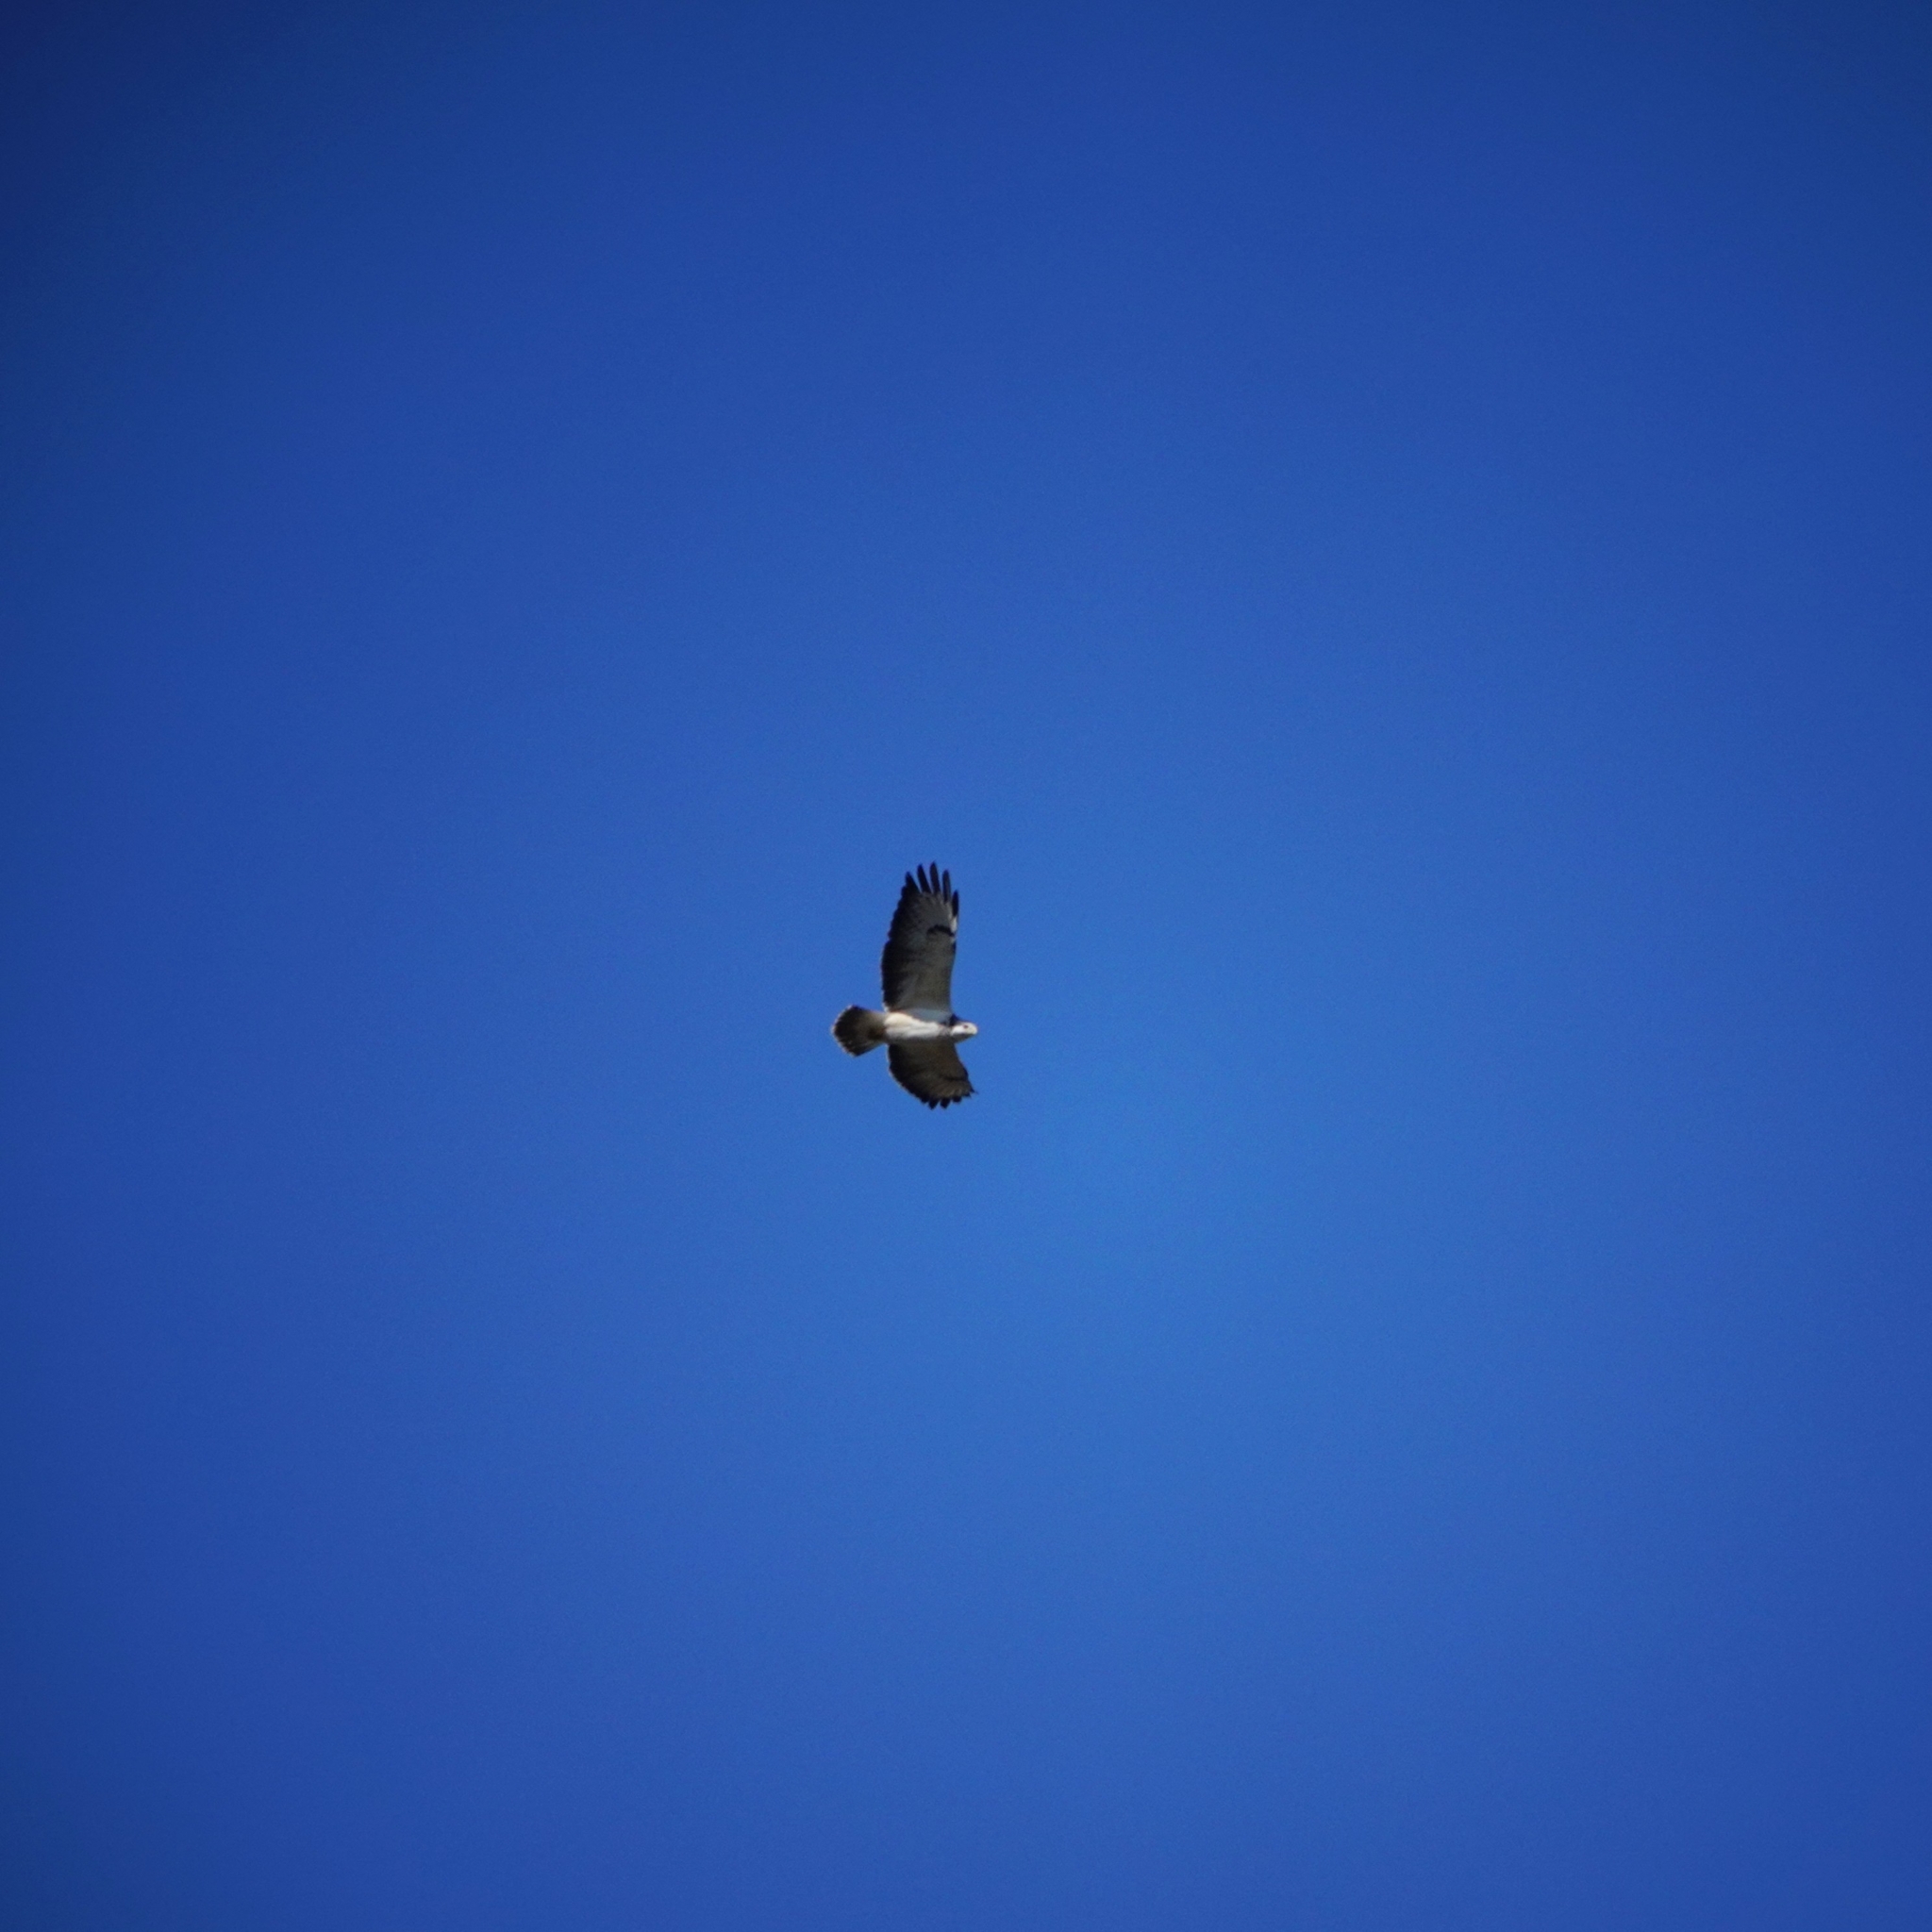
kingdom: Animalia
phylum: Chordata
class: Aves
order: Accipitriformes
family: Accipitridae
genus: Buteo
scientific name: Buteo buteo
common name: Common buzzard
